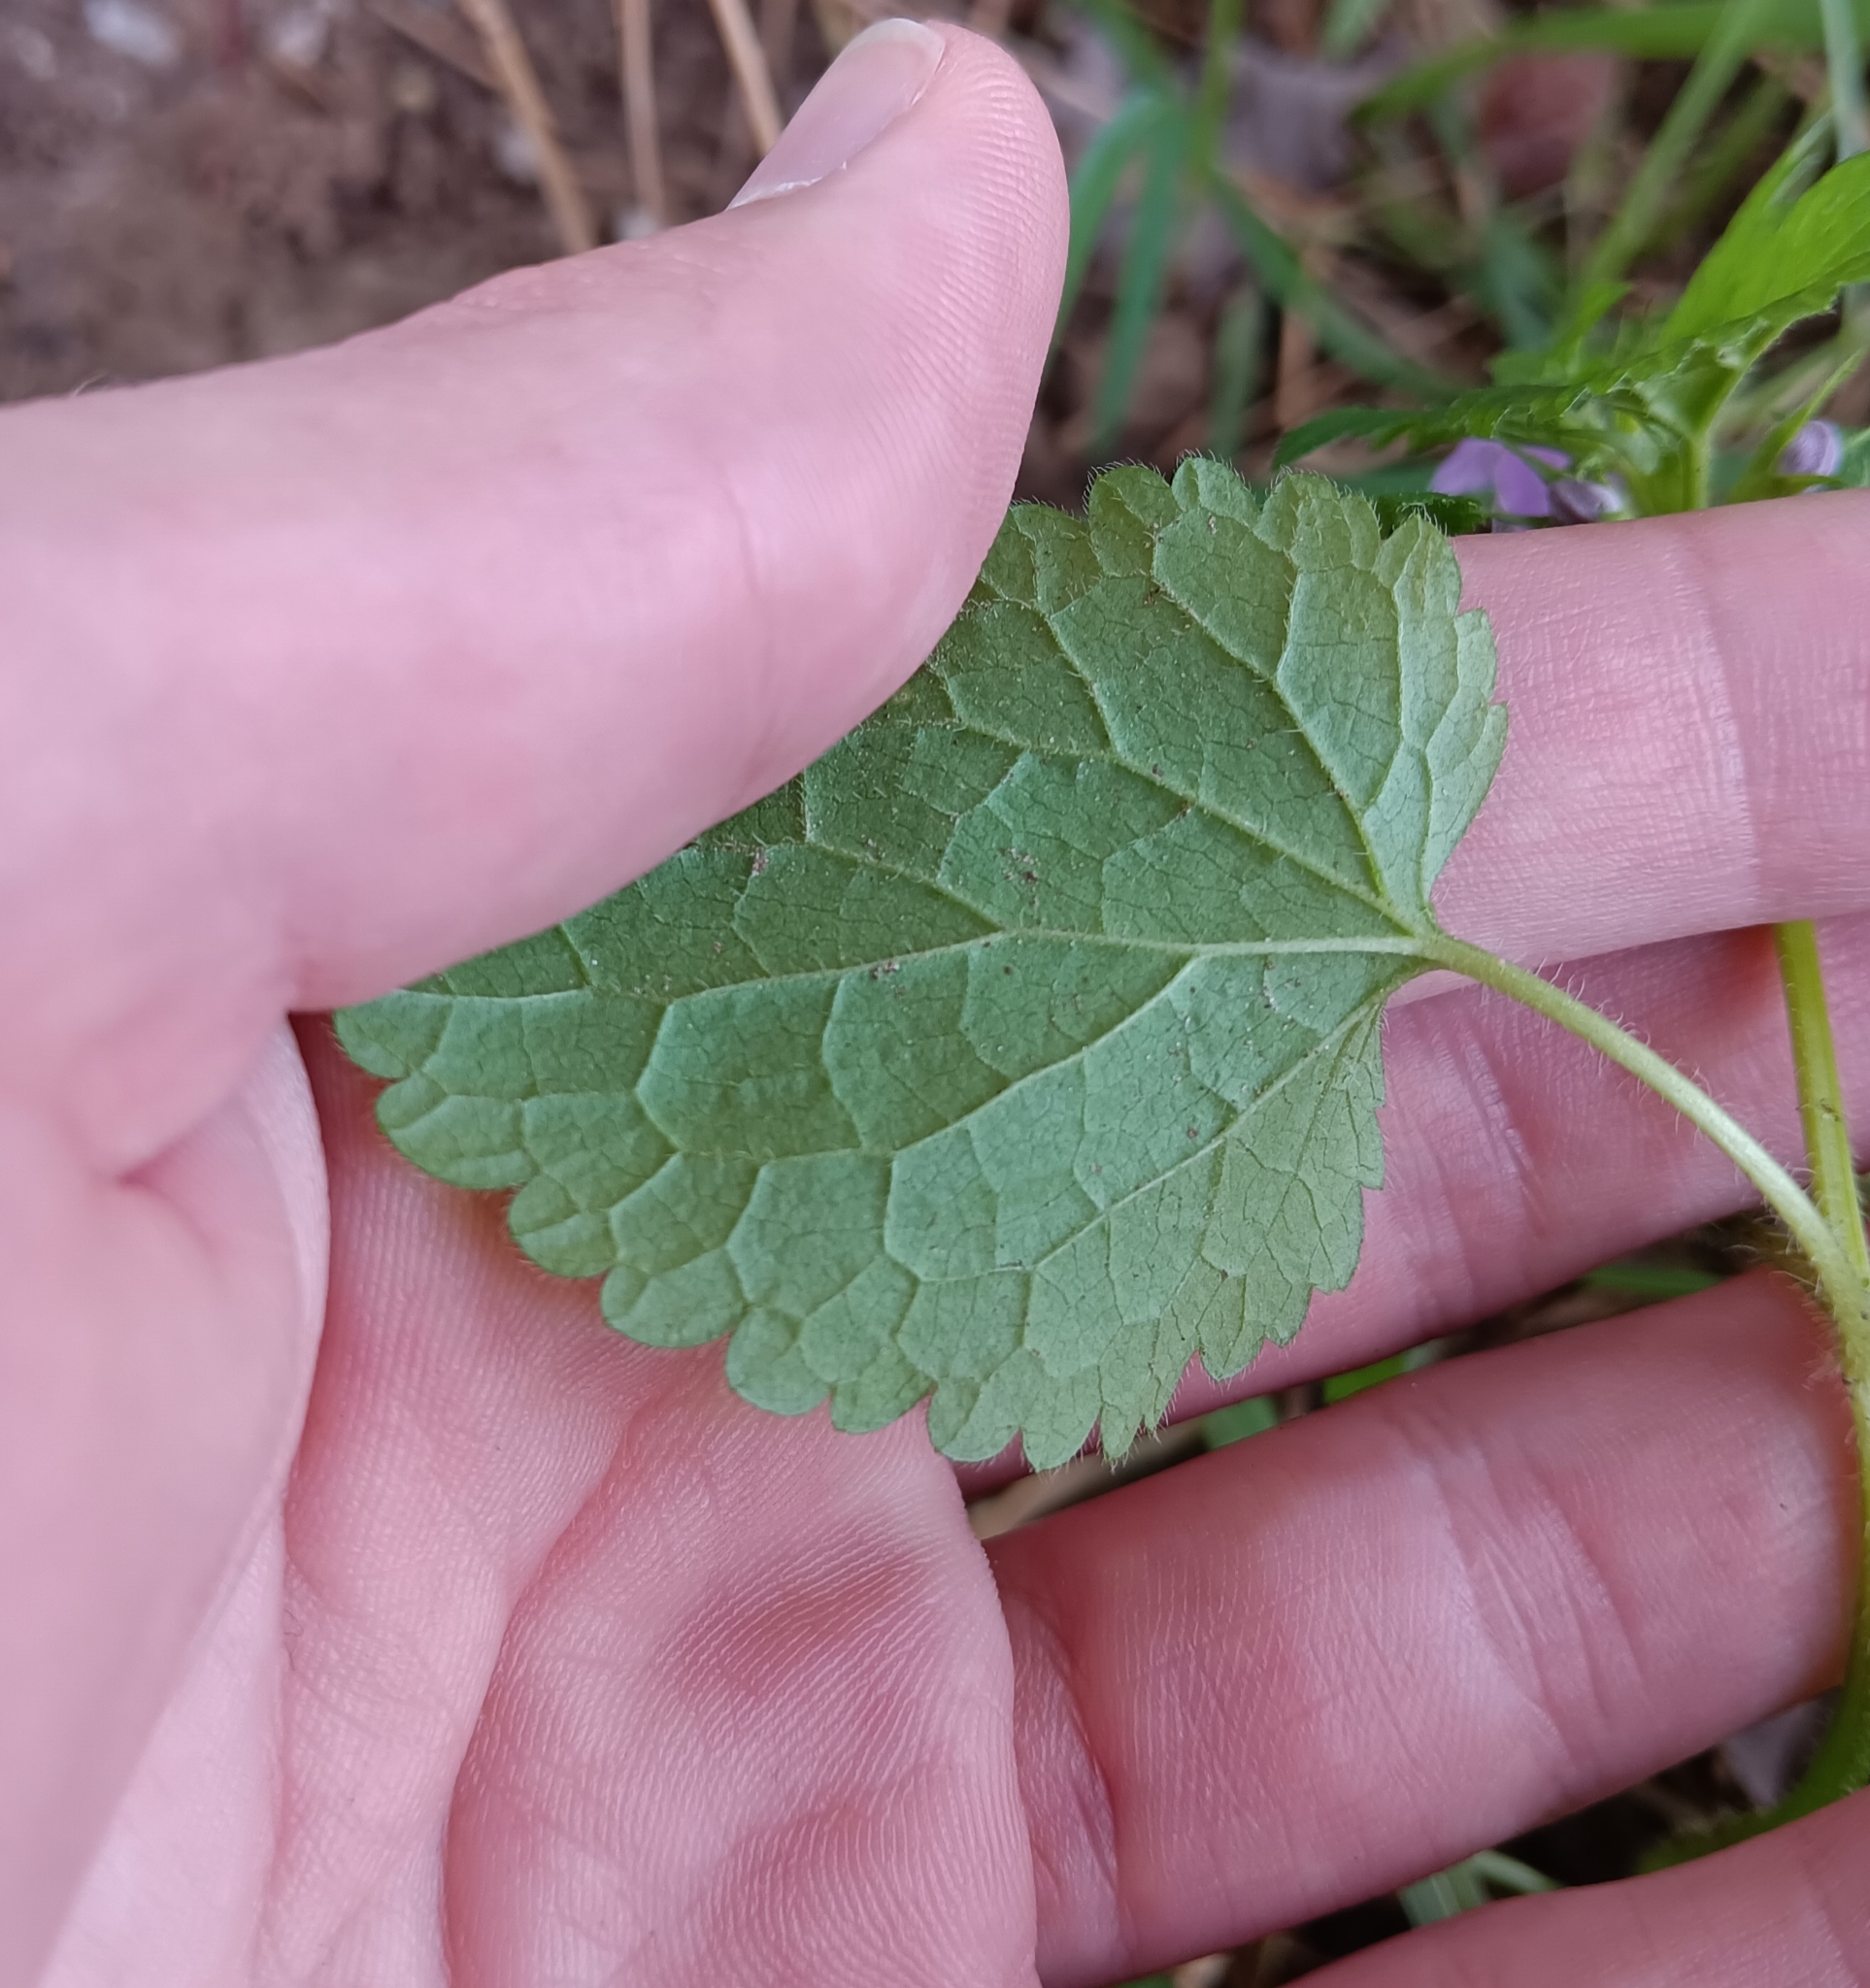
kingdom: Plantae
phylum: Tracheophyta
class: Magnoliopsida
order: Lamiales
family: Lamiaceae
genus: Lamium
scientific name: Lamium maculatum
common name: Spotted dead-nettle
